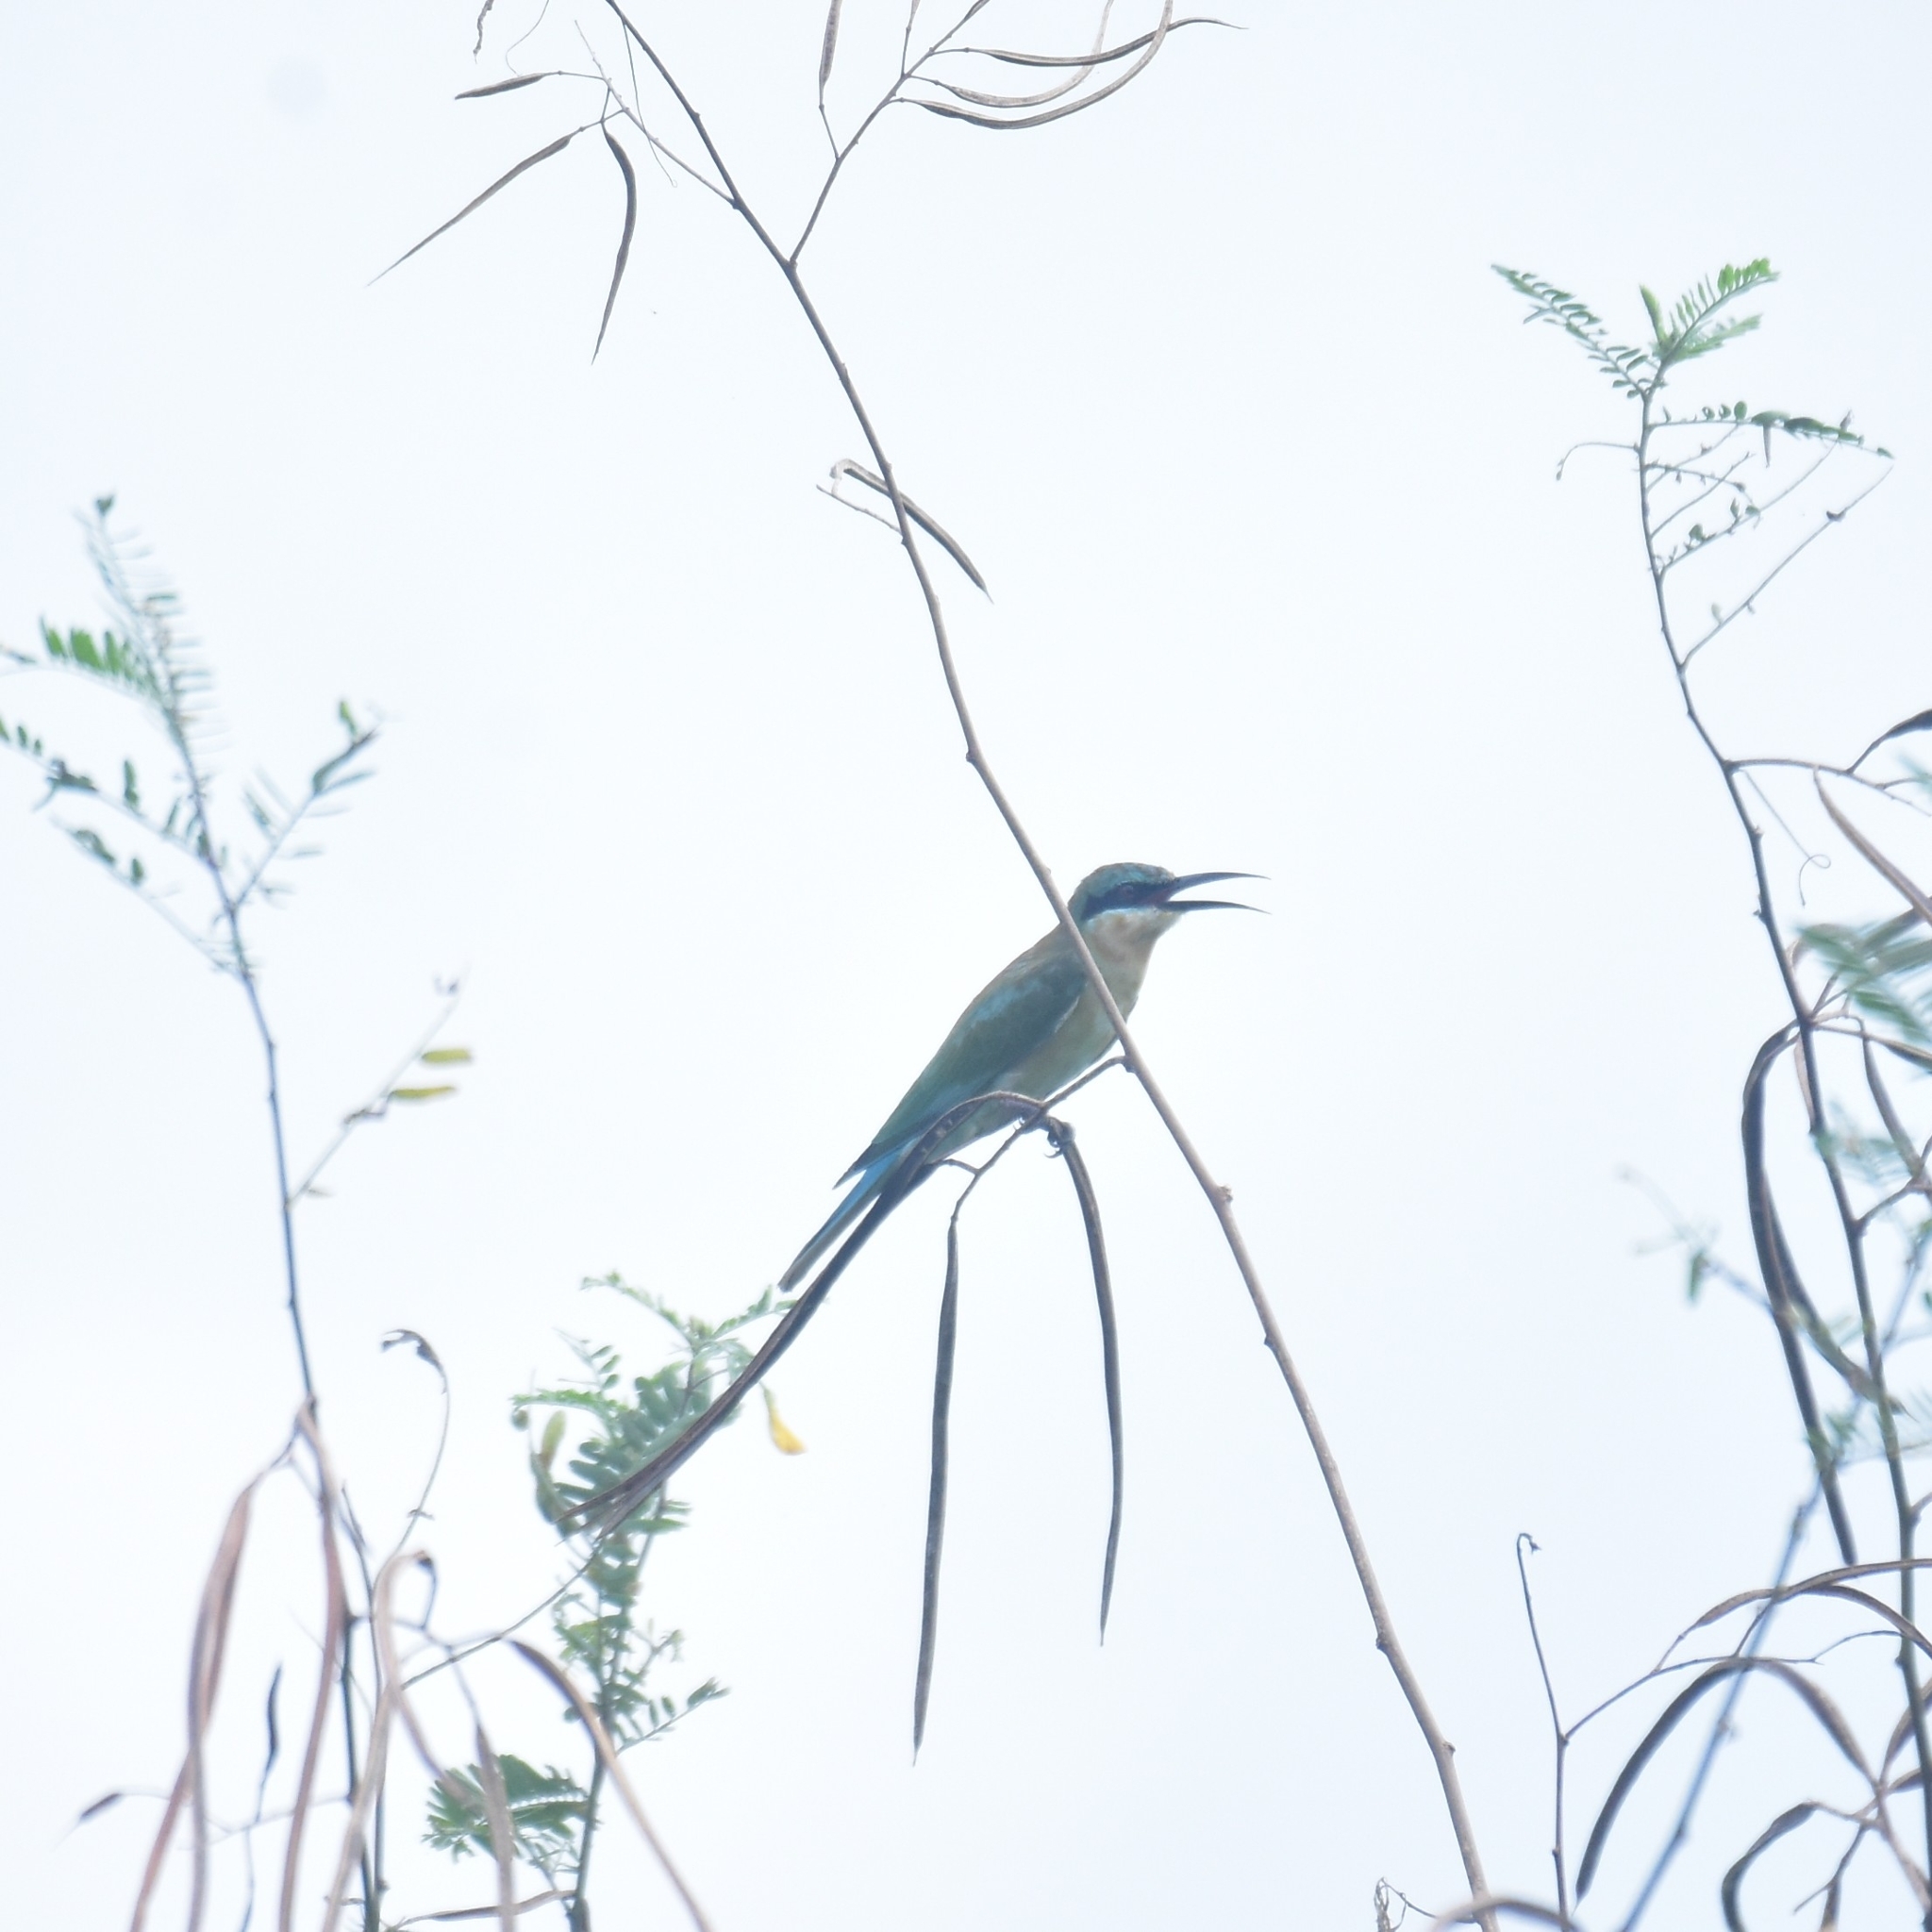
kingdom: Animalia
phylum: Chordata
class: Aves
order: Coraciiformes
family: Meropidae
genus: Merops
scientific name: Merops philippinus
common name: Blue-tailed bee-eater
